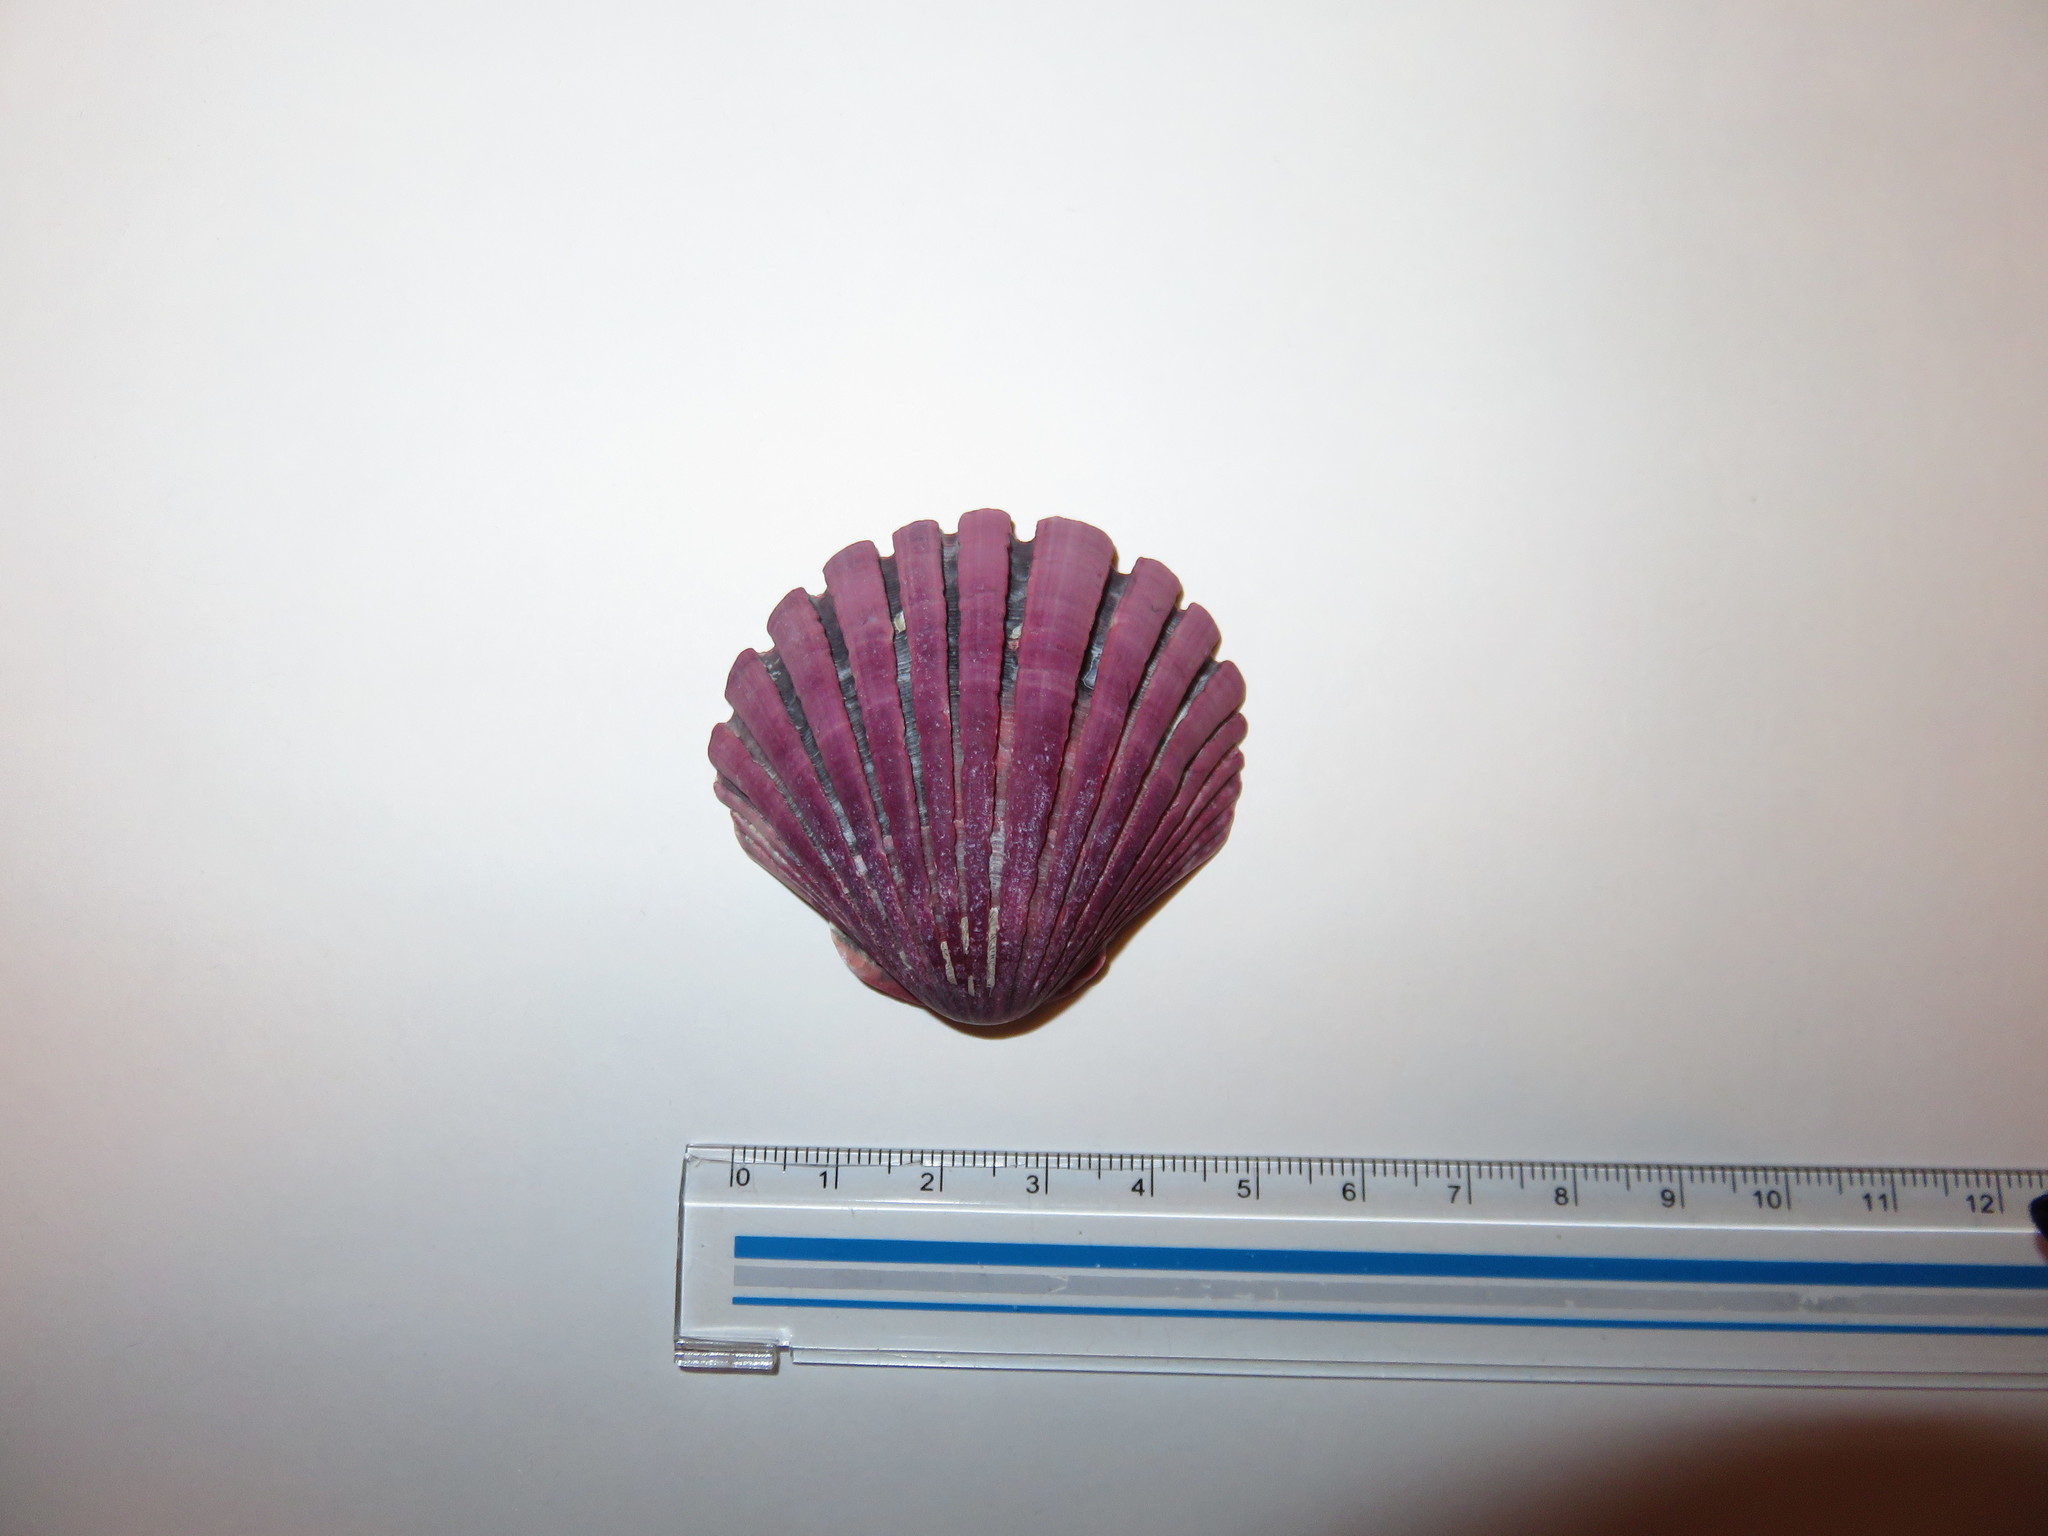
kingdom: Animalia
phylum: Mollusca
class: Bivalvia
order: Pectinida
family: Pectinidae
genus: Pecten
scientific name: Pecten albicans
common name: Japanese baking scallop
